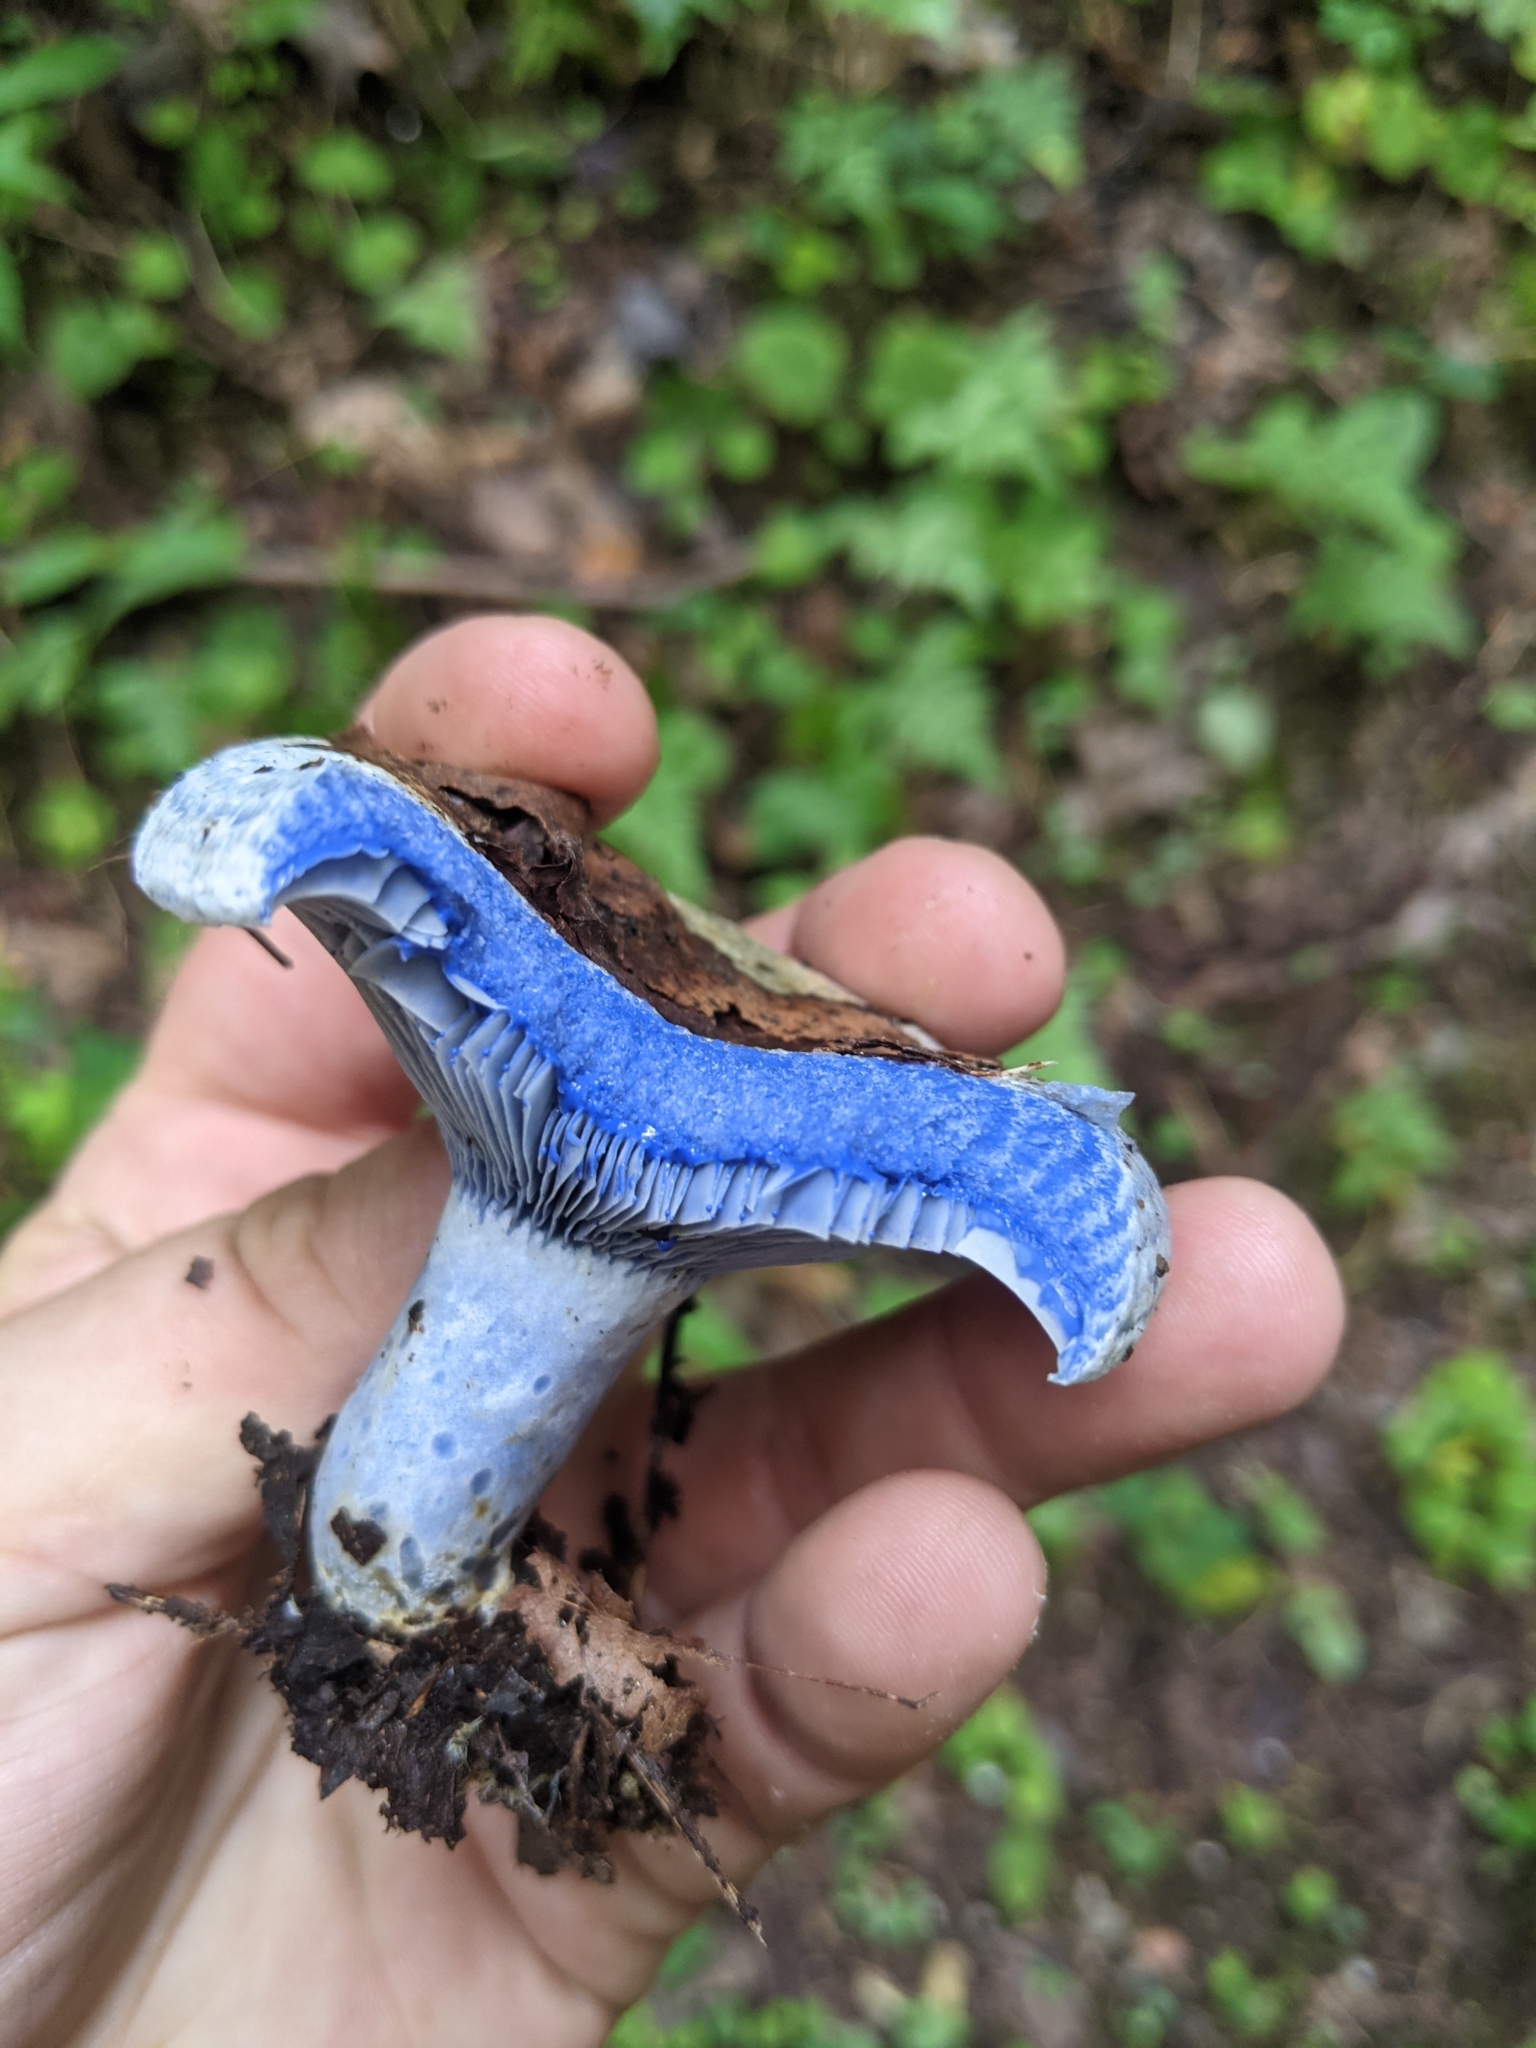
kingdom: Fungi
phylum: Basidiomycota
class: Agaricomycetes
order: Russulales
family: Russulaceae
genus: Lactarius
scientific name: Lactarius indigo
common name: Indigo milk cap
